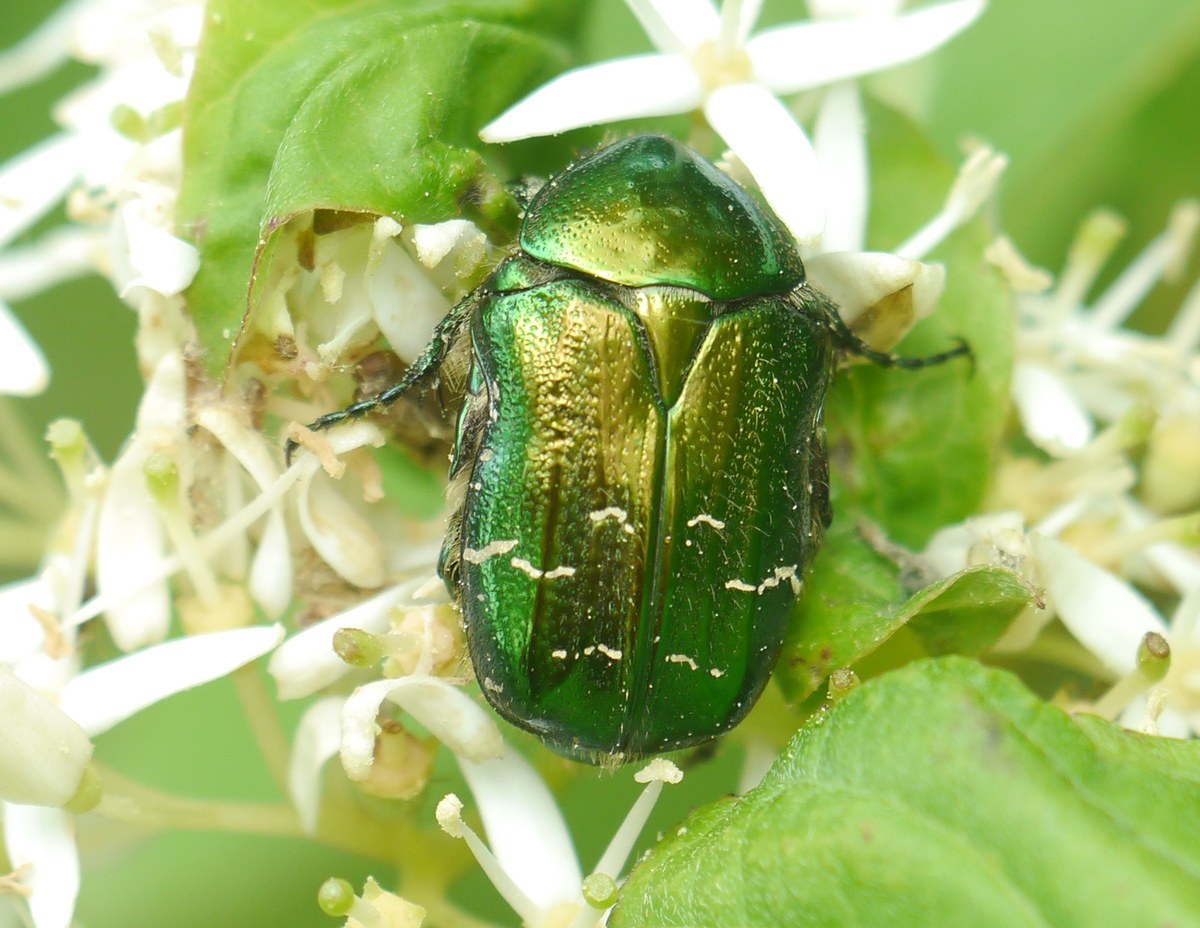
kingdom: Animalia
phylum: Arthropoda
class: Insecta
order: Coleoptera
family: Scarabaeidae
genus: Cetonia
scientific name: Cetonia aurata
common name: Rose chafer
